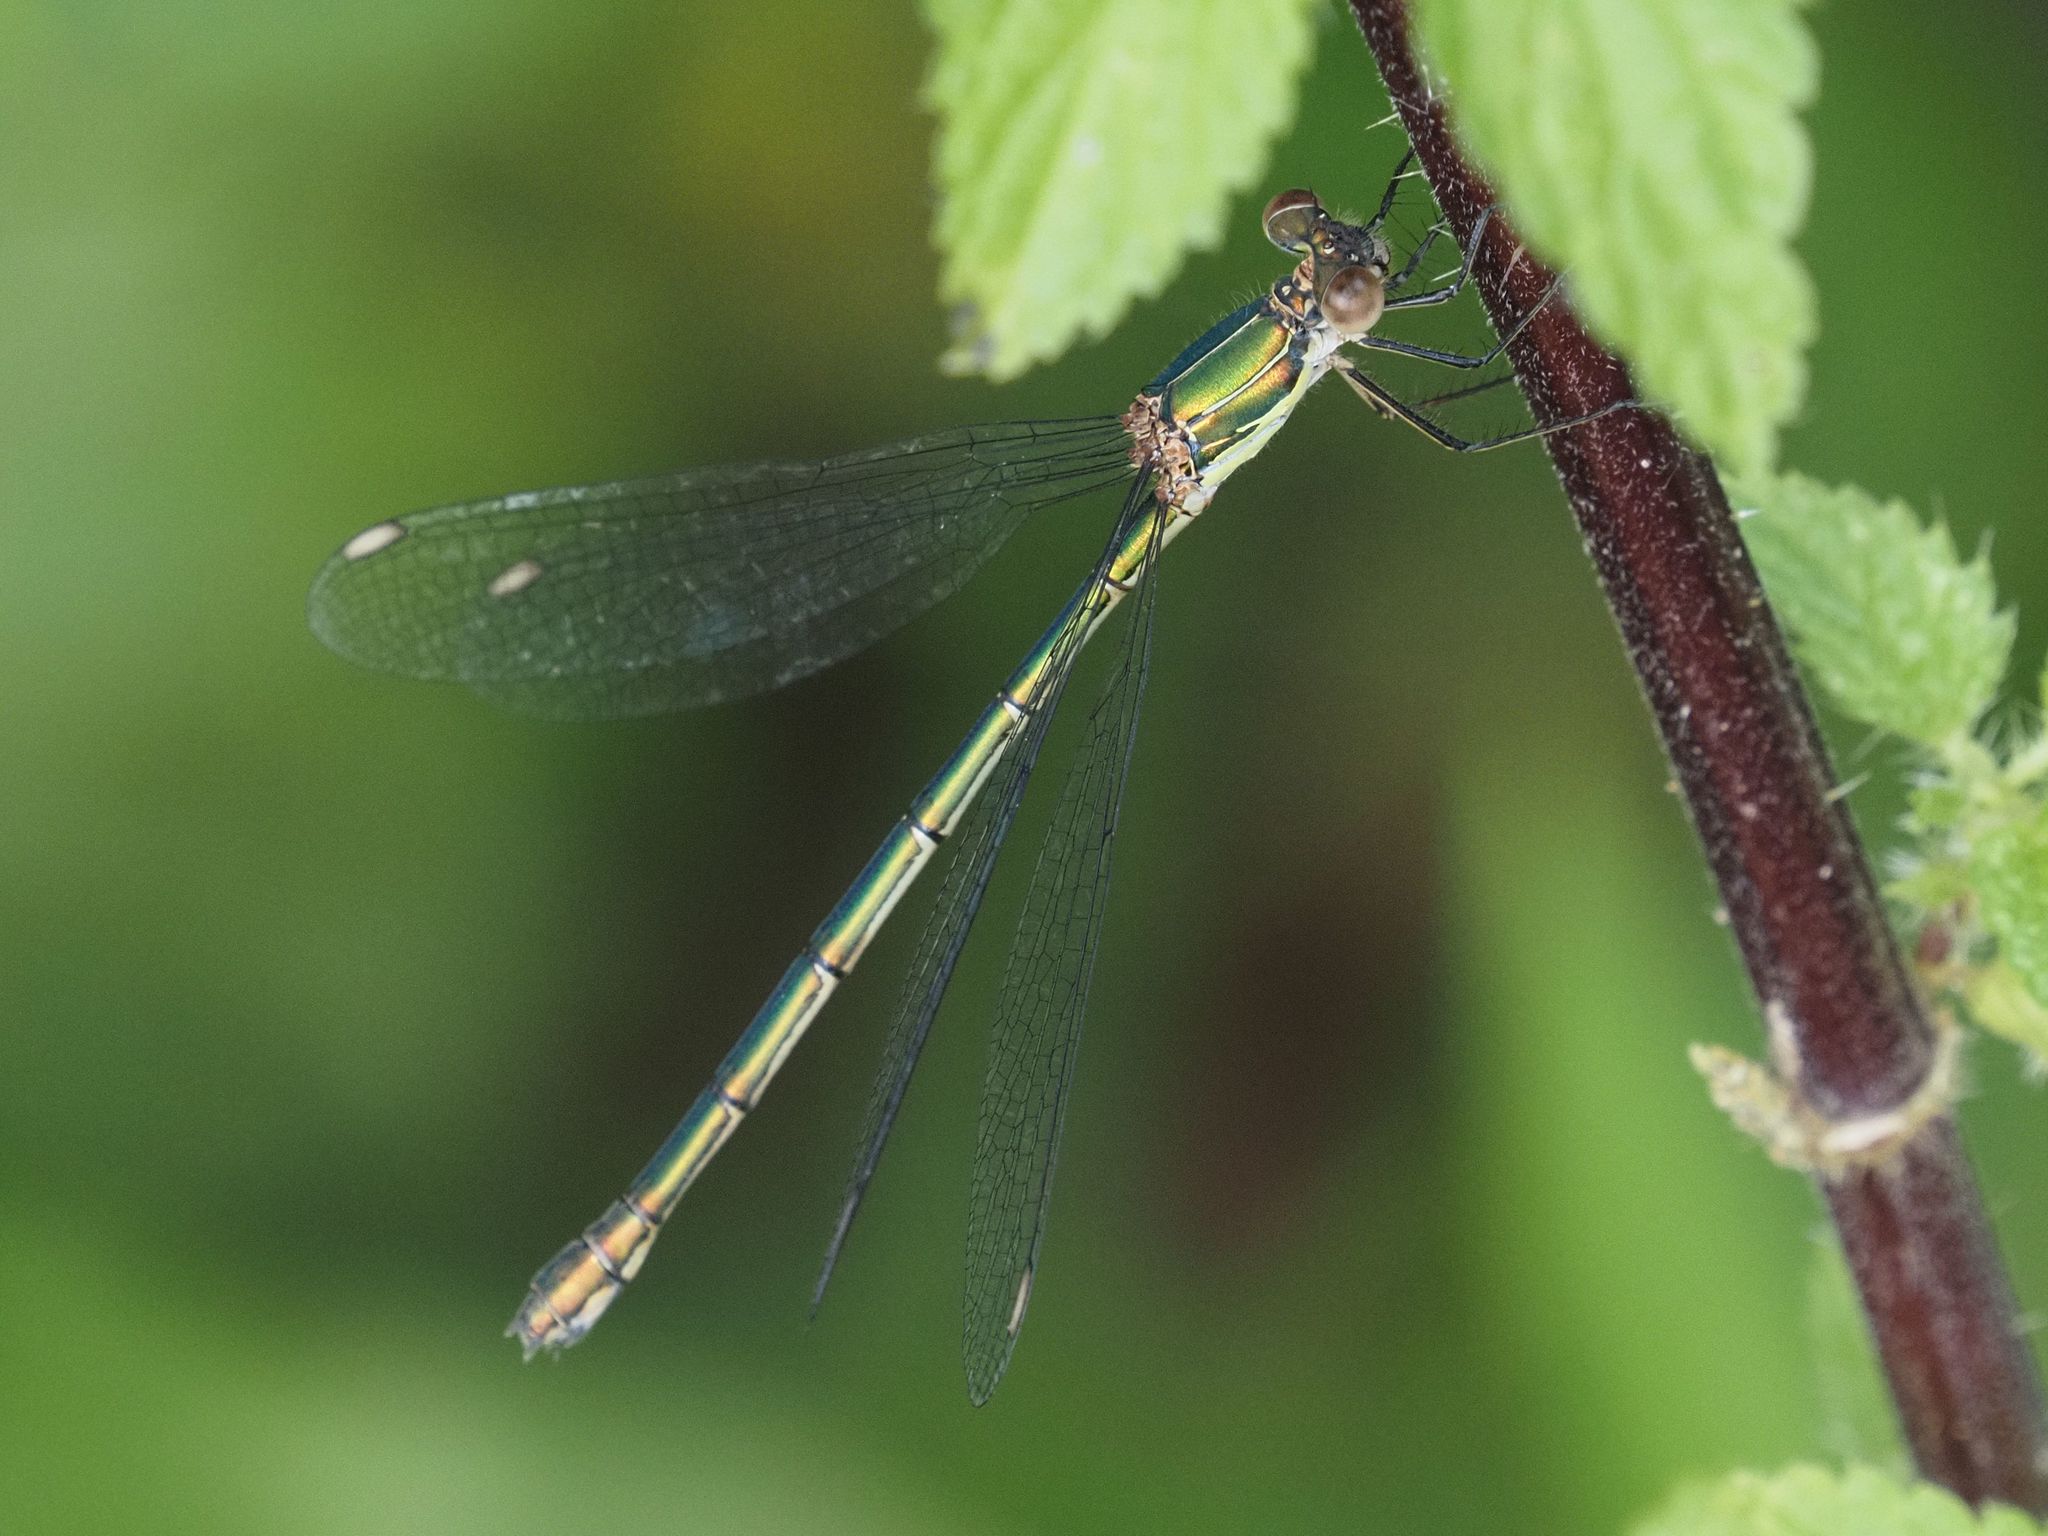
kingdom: Animalia
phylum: Arthropoda
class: Insecta
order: Odonata
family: Lestidae
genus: Chalcolestes
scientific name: Chalcolestes viridis
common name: Green emerald damselfly
